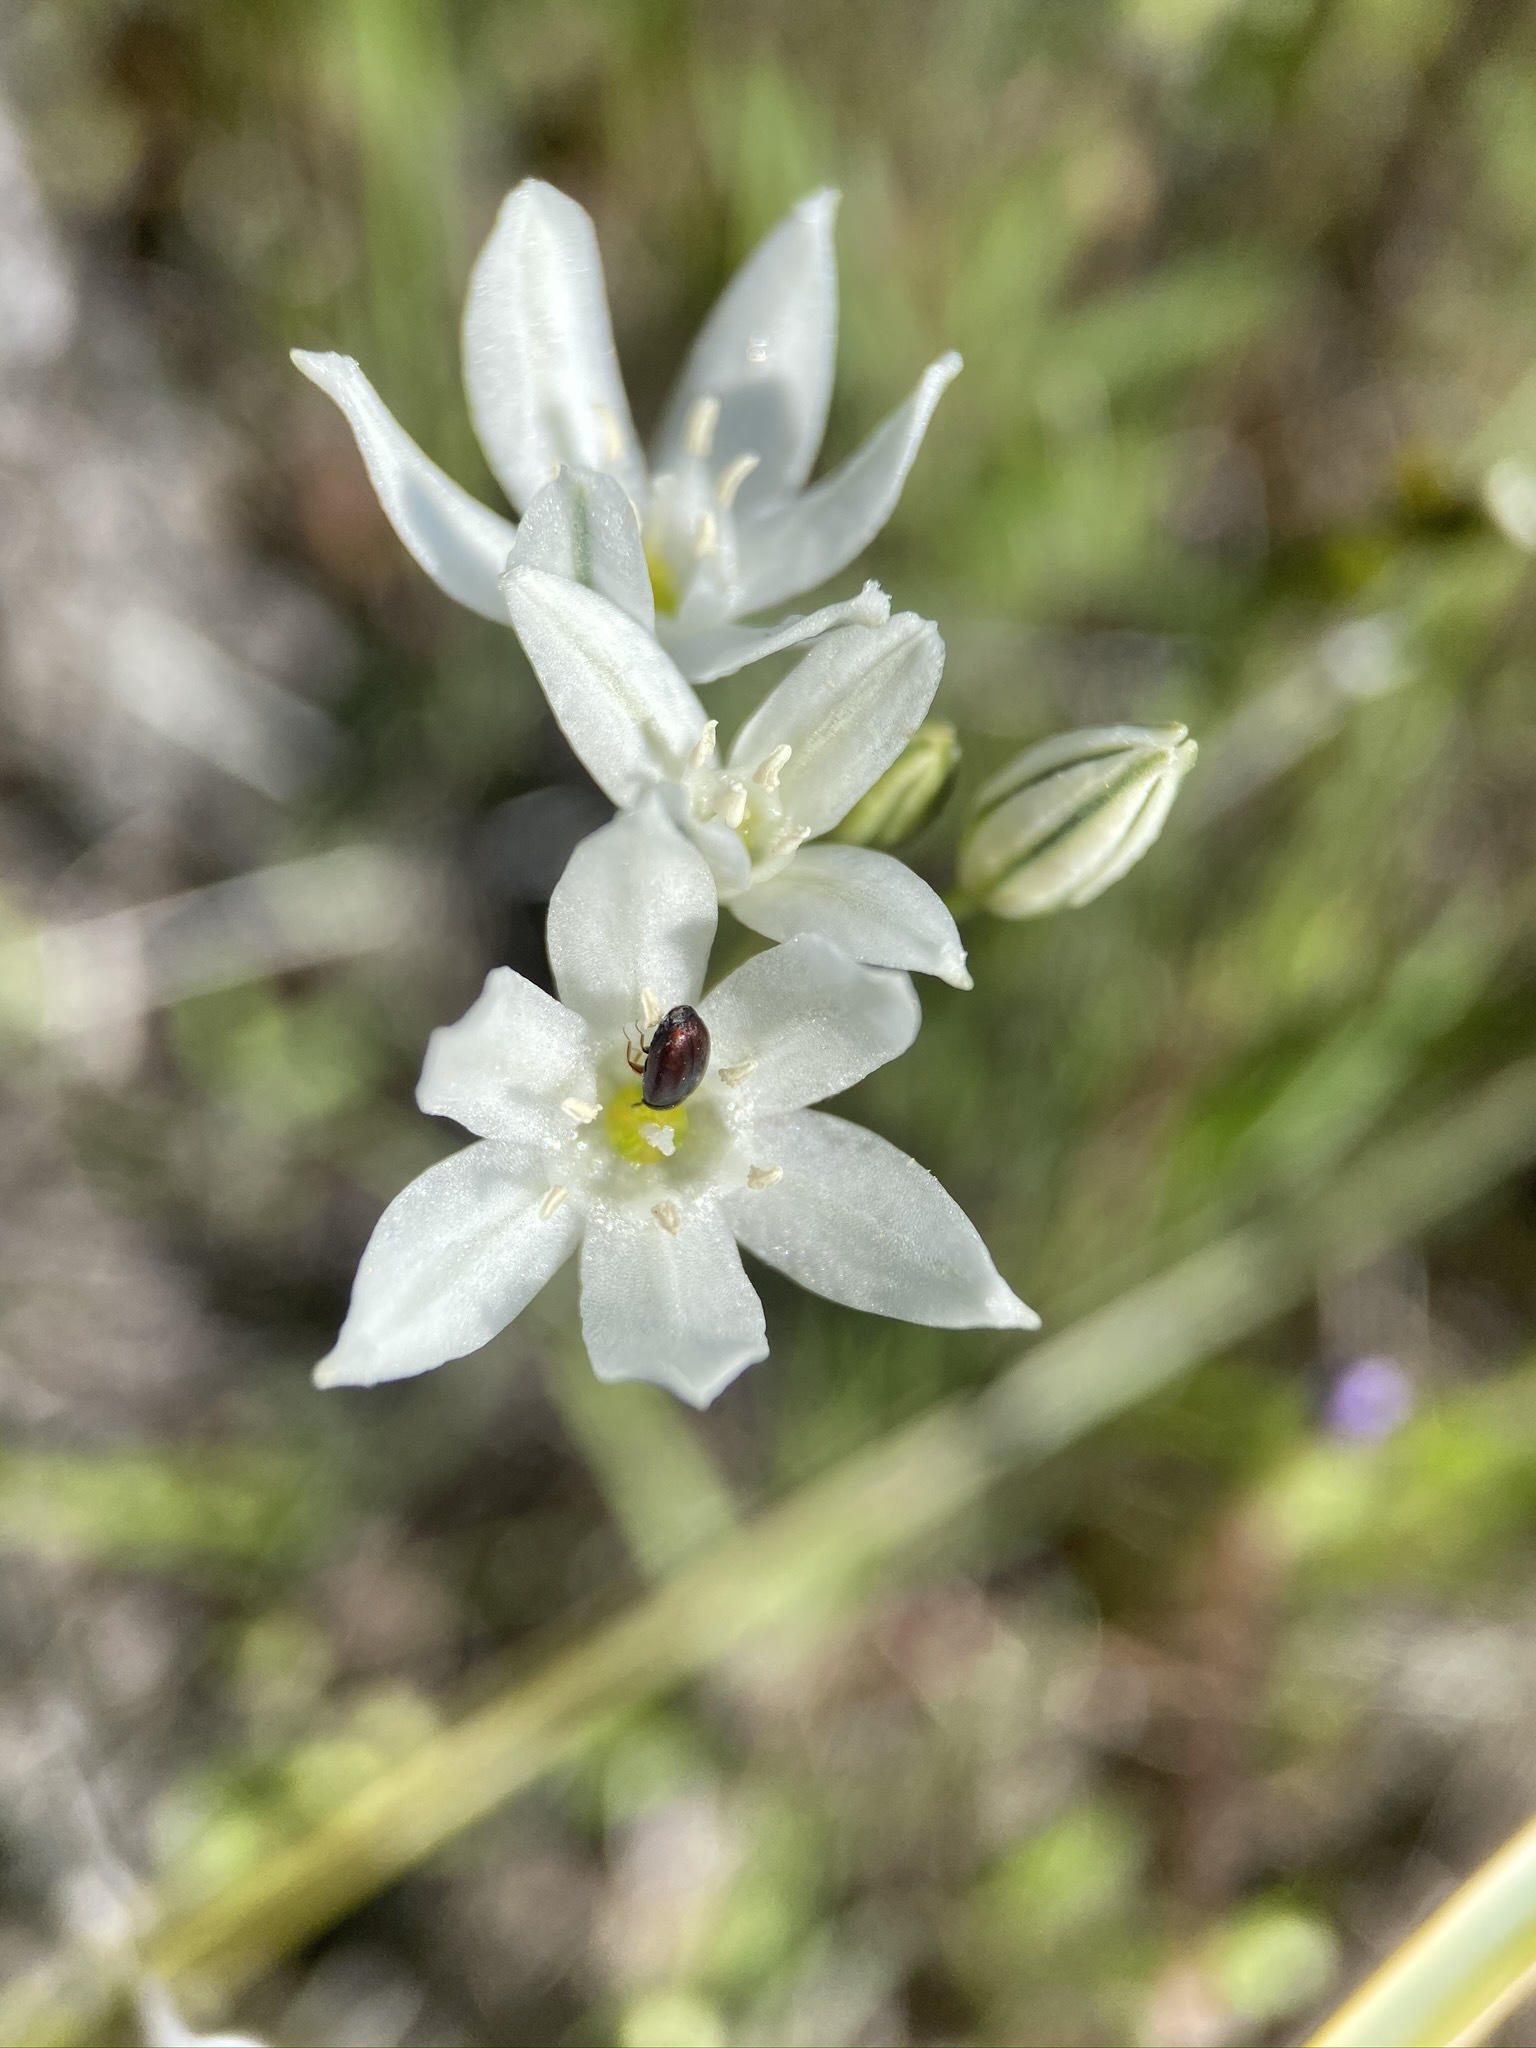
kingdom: Plantae
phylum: Tracheophyta
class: Liliopsida
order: Asparagales
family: Asparagaceae
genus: Triteleia
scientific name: Triteleia hyacinthina
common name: White brodiaea
